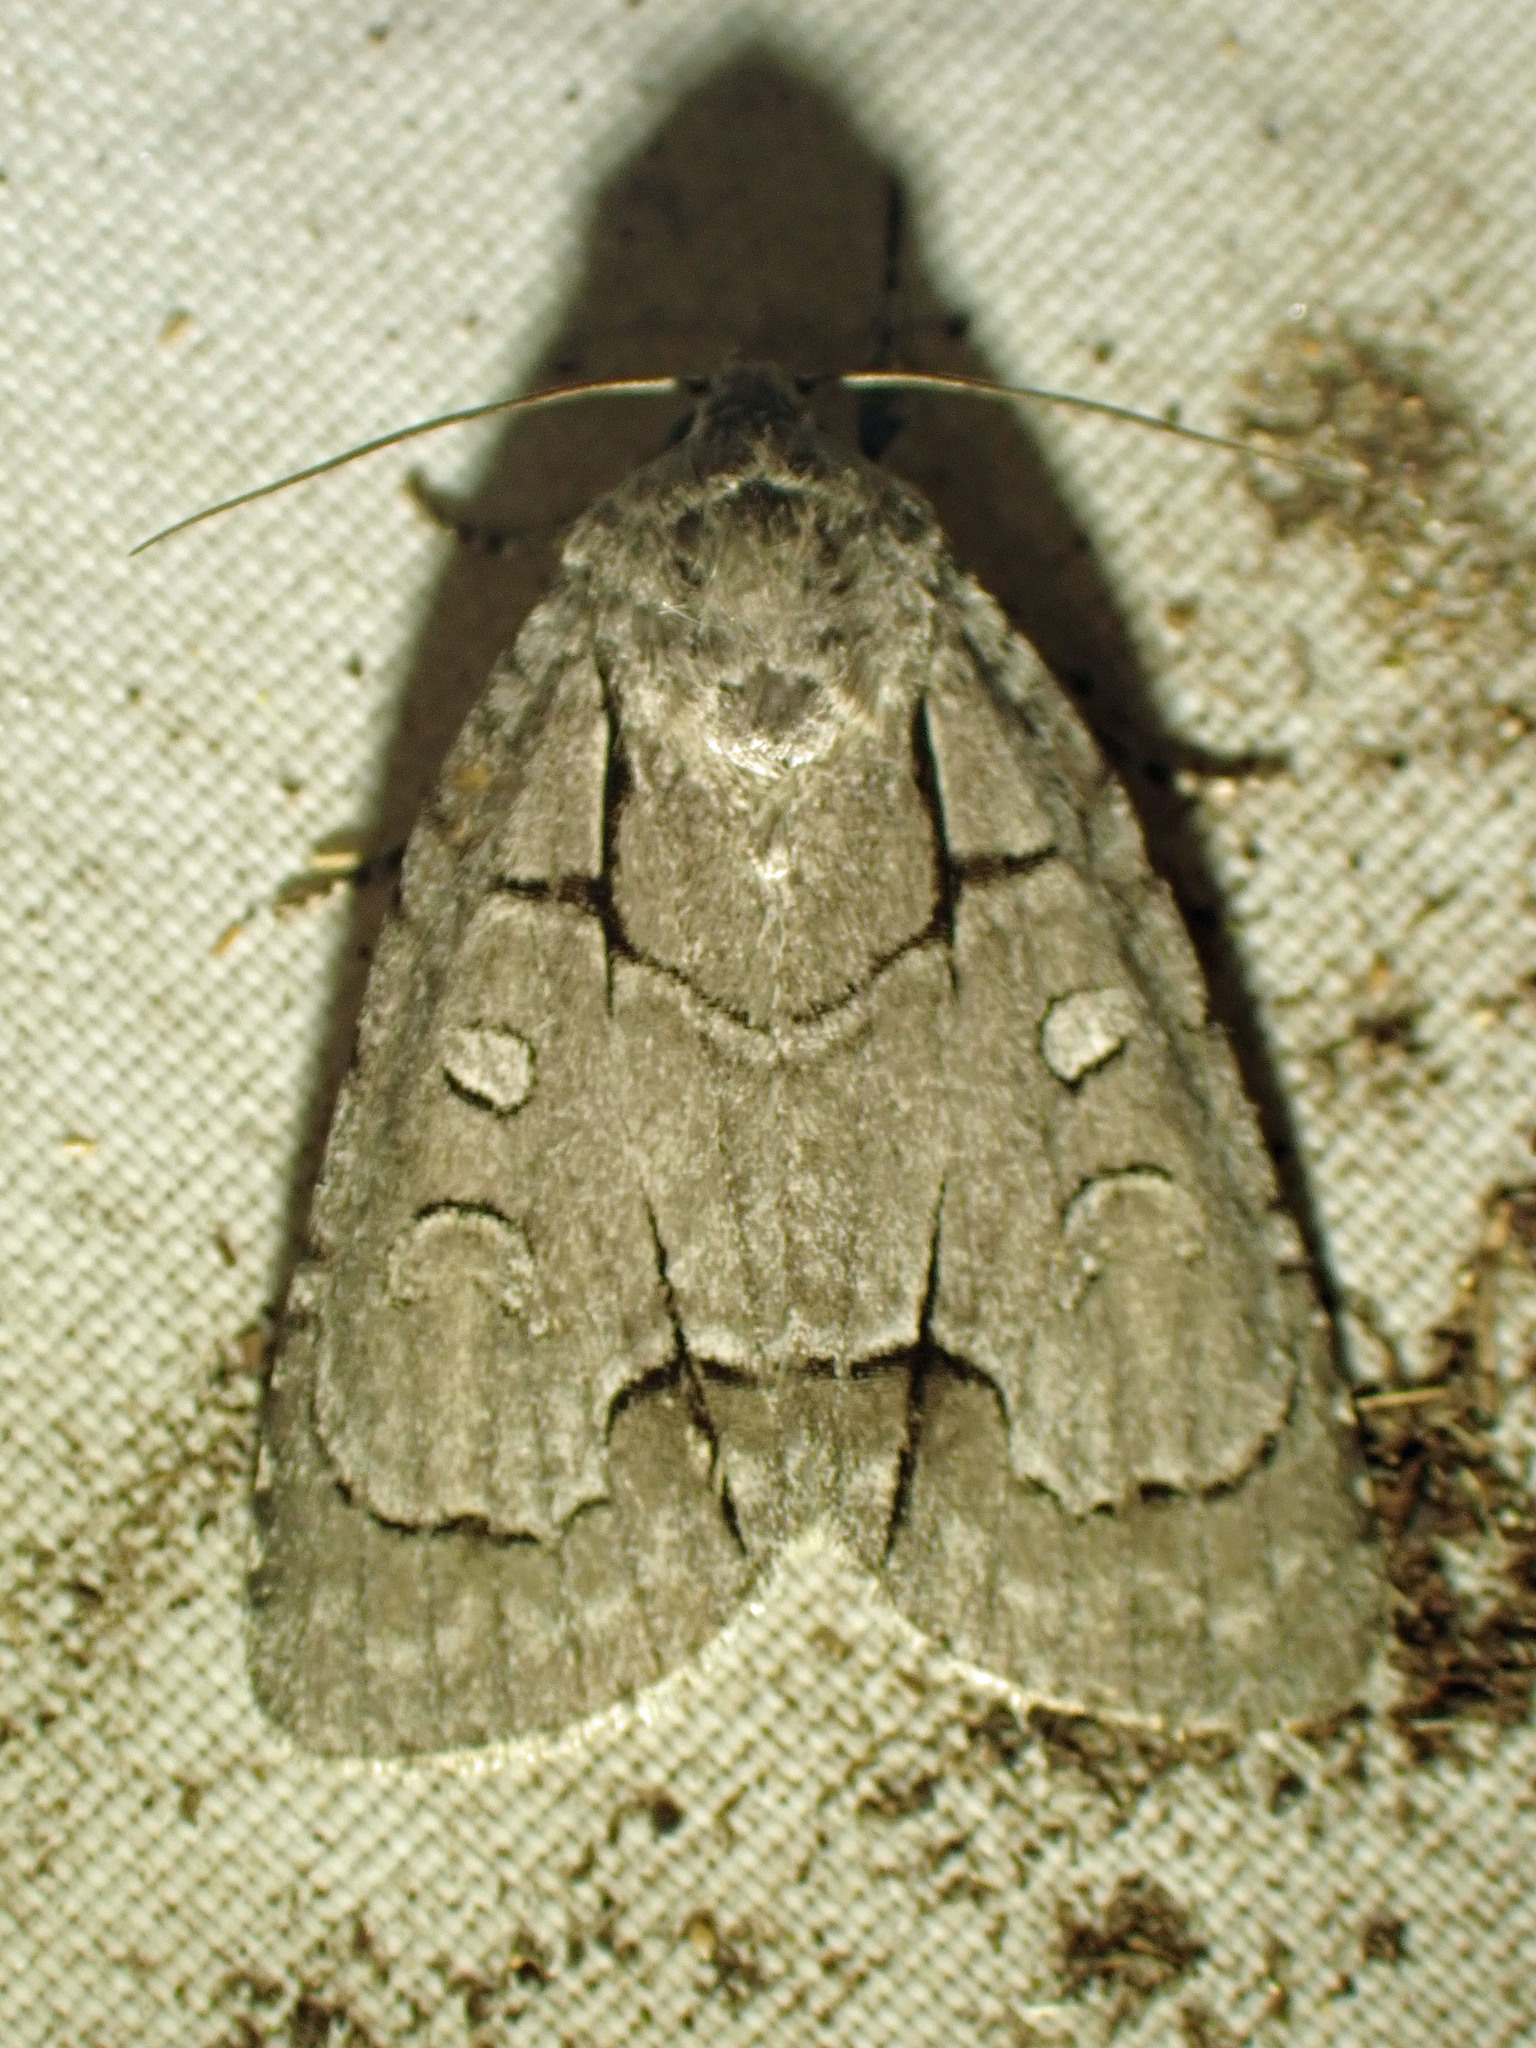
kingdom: Animalia
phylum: Arthropoda
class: Insecta
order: Lepidoptera
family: Noctuidae
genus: Acronicta
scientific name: Acronicta radcliffei
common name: Radcliffe's dagger
